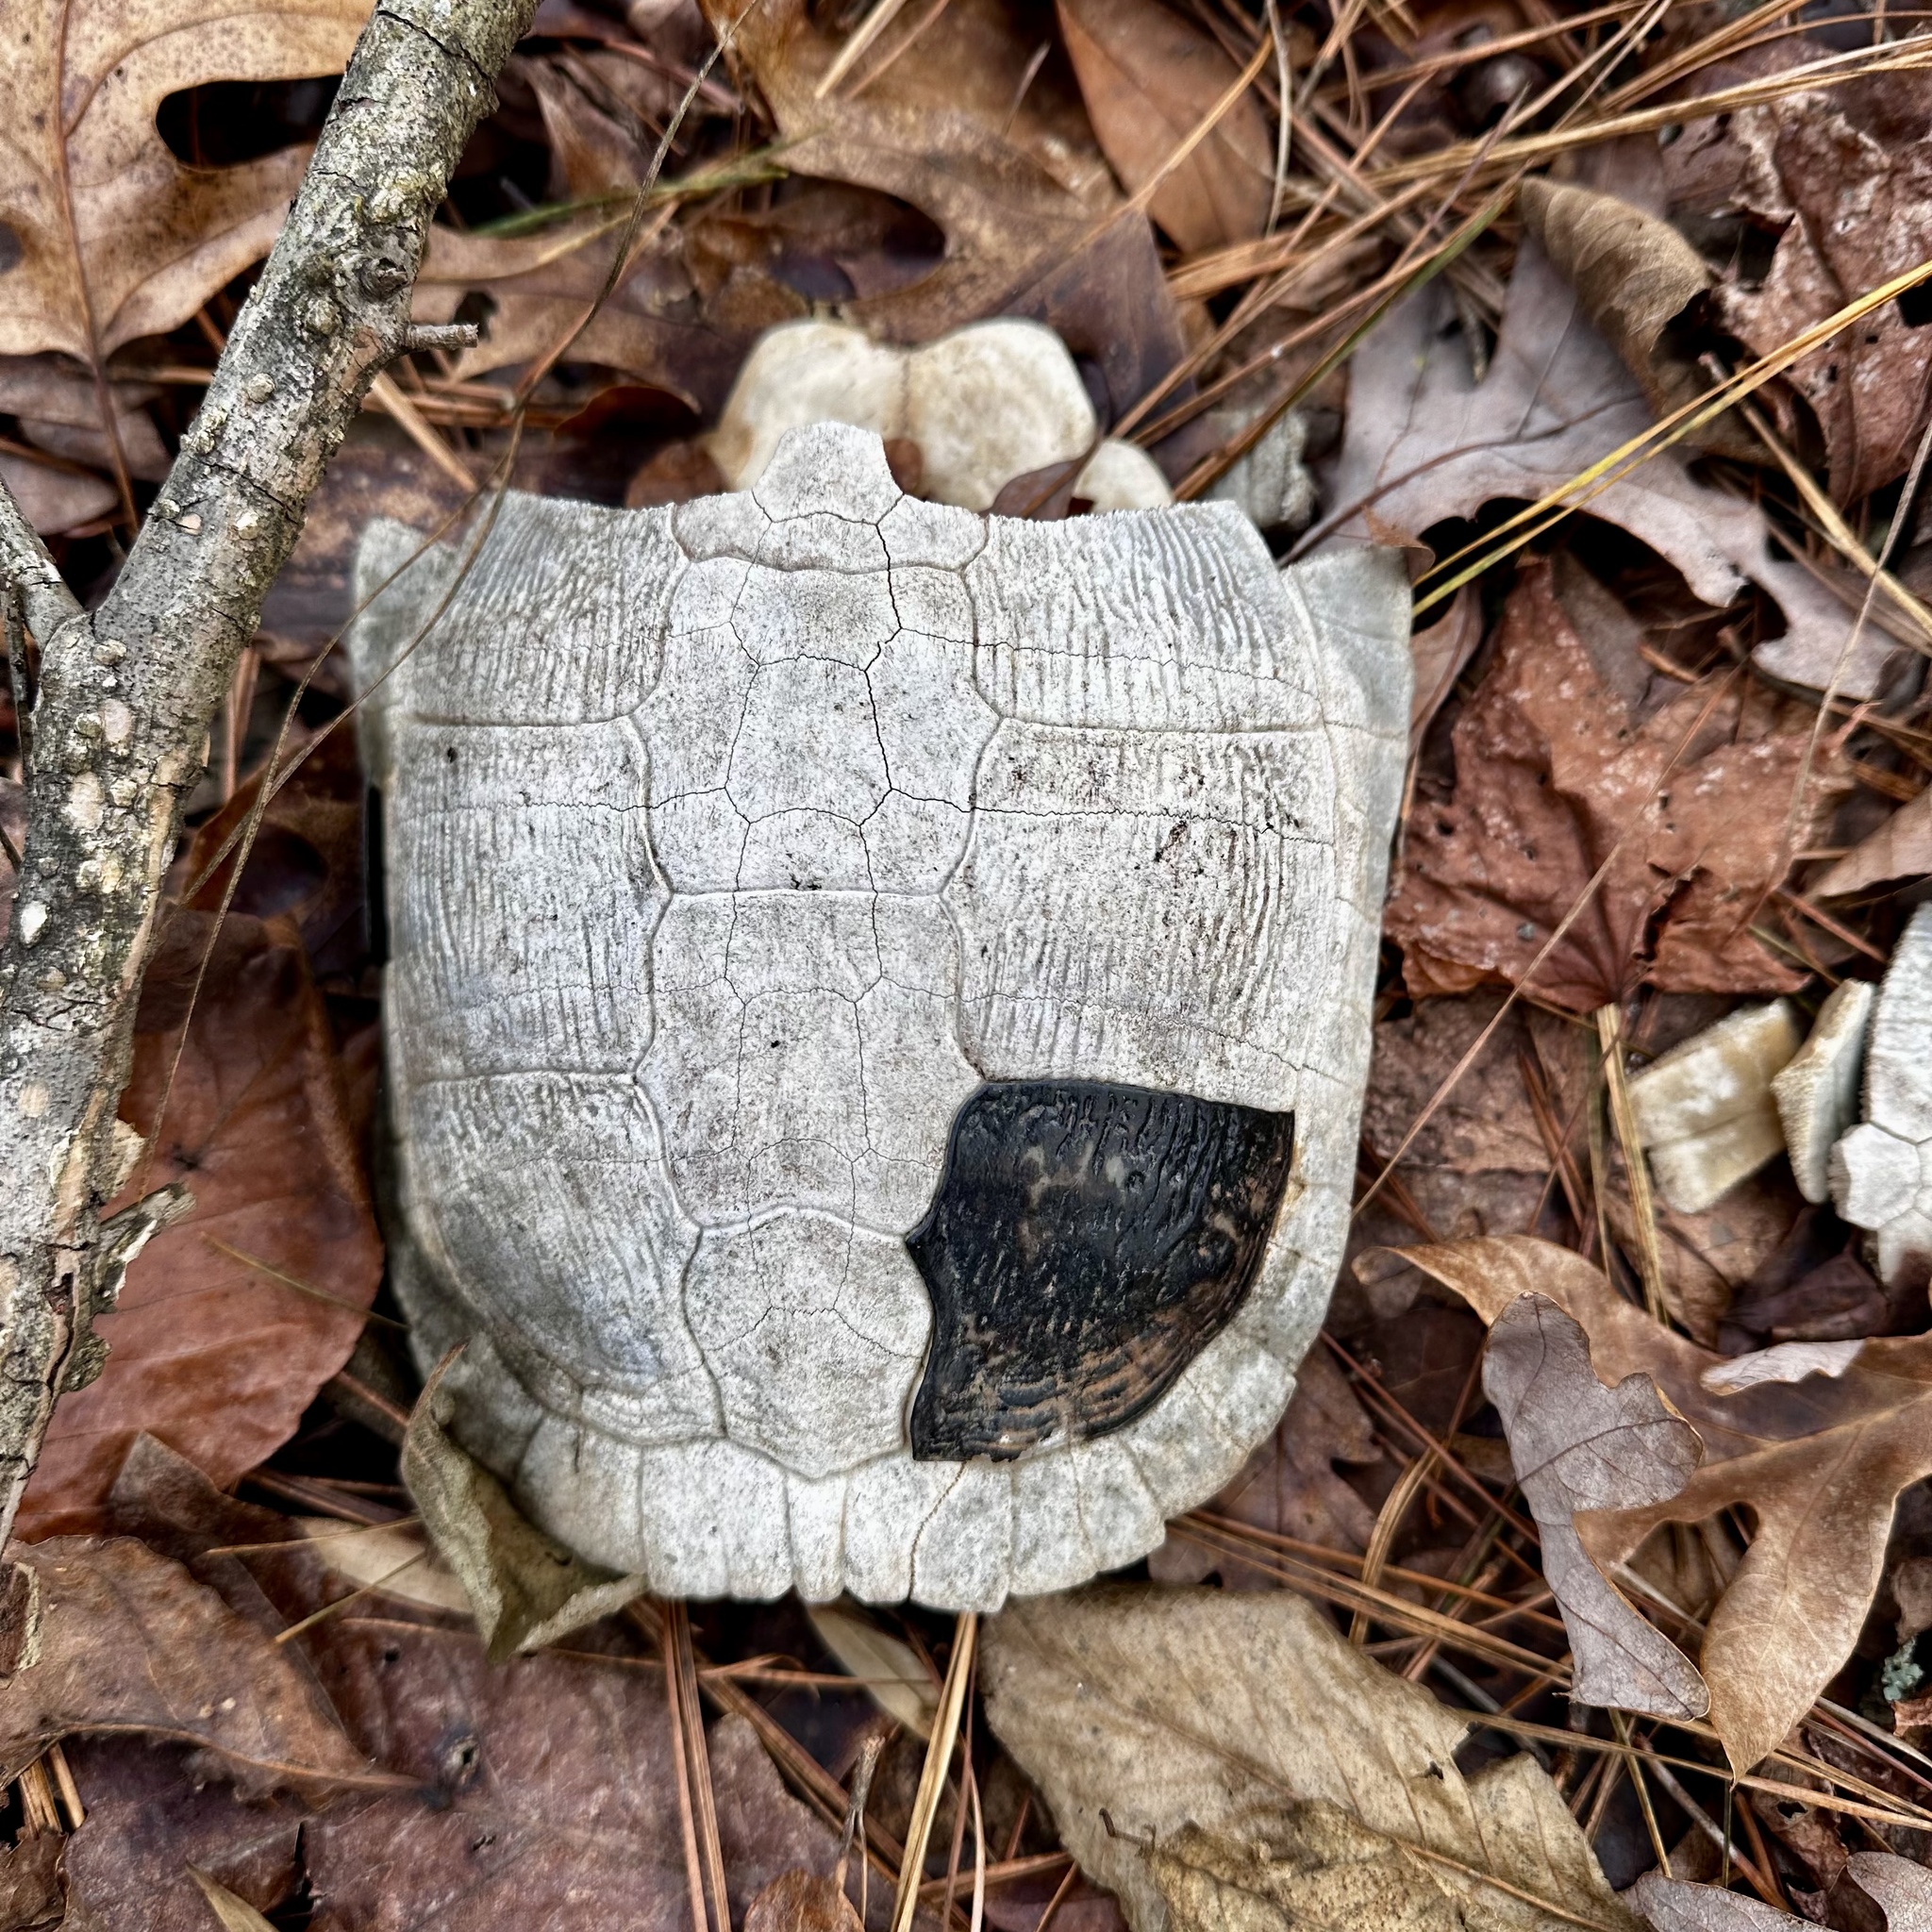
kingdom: Animalia
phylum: Chordata
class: Testudines
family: Emydidae
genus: Terrapene
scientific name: Terrapene carolina
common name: Common box turtle
